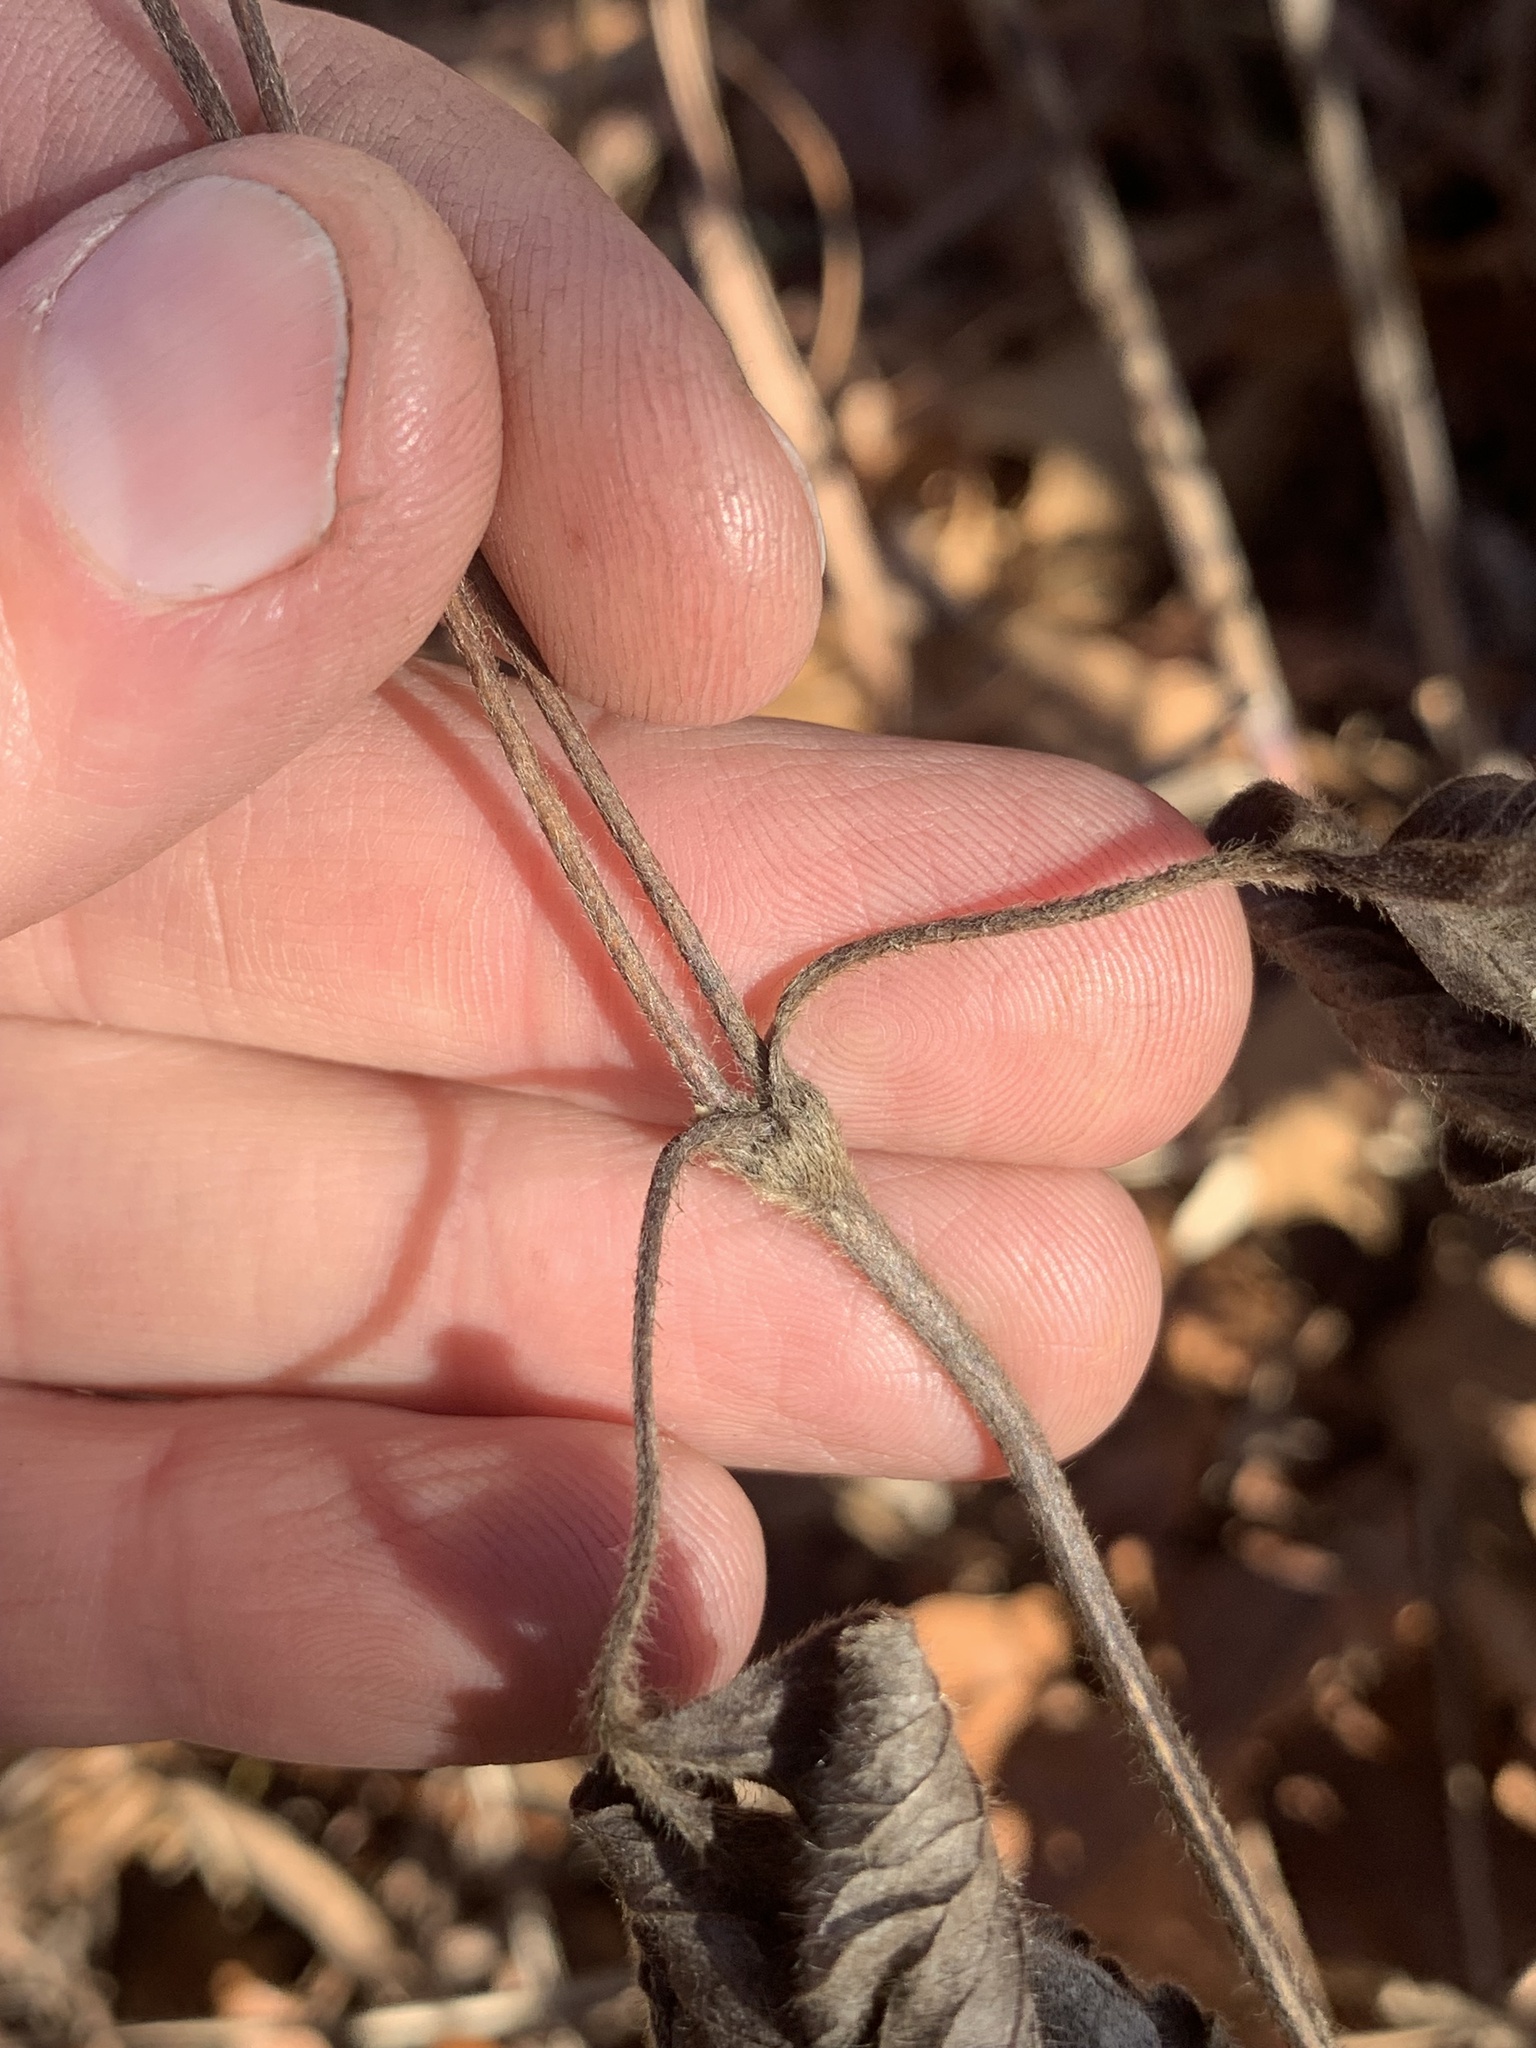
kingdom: Plantae
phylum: Tracheophyta
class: Magnoliopsida
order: Ranunculales
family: Ranunculaceae
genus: Anemone
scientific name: Anemone virginiana
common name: Tall anemone
